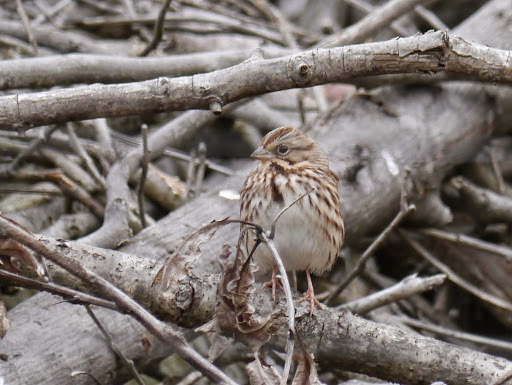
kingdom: Animalia
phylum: Chordata
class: Aves
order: Passeriformes
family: Passerellidae
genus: Melospiza
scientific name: Melospiza melodia
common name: Song sparrow
